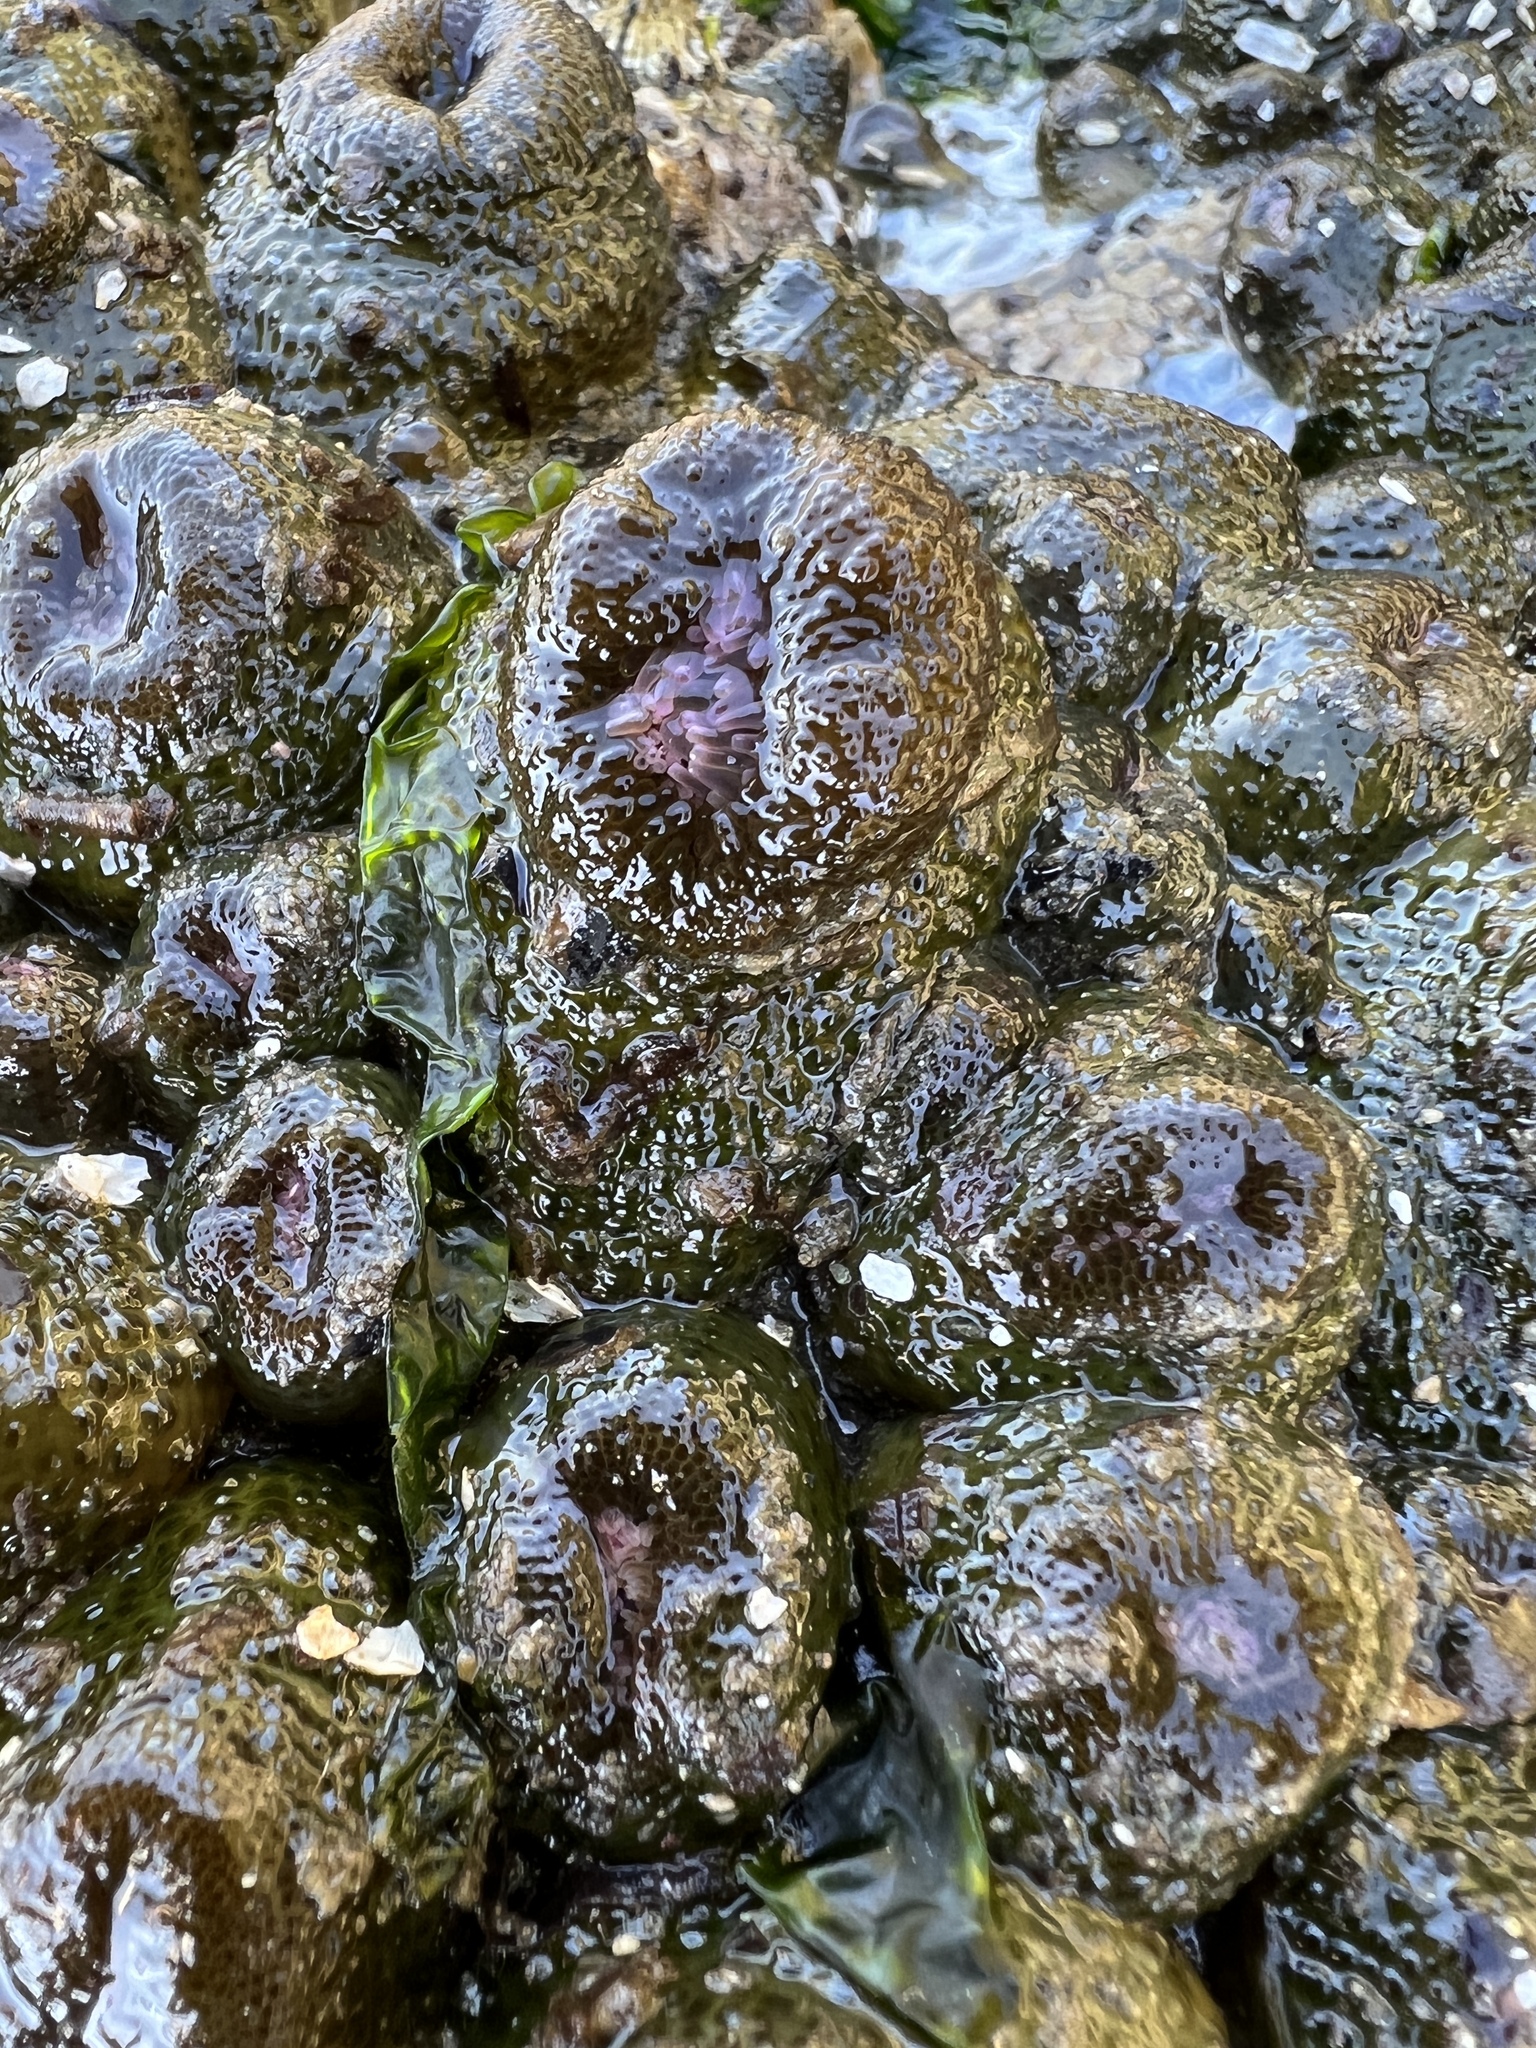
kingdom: Animalia
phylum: Cnidaria
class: Anthozoa
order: Actiniaria
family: Actiniidae
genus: Anthopleura
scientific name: Anthopleura elegantissima
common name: Clonal anemone
